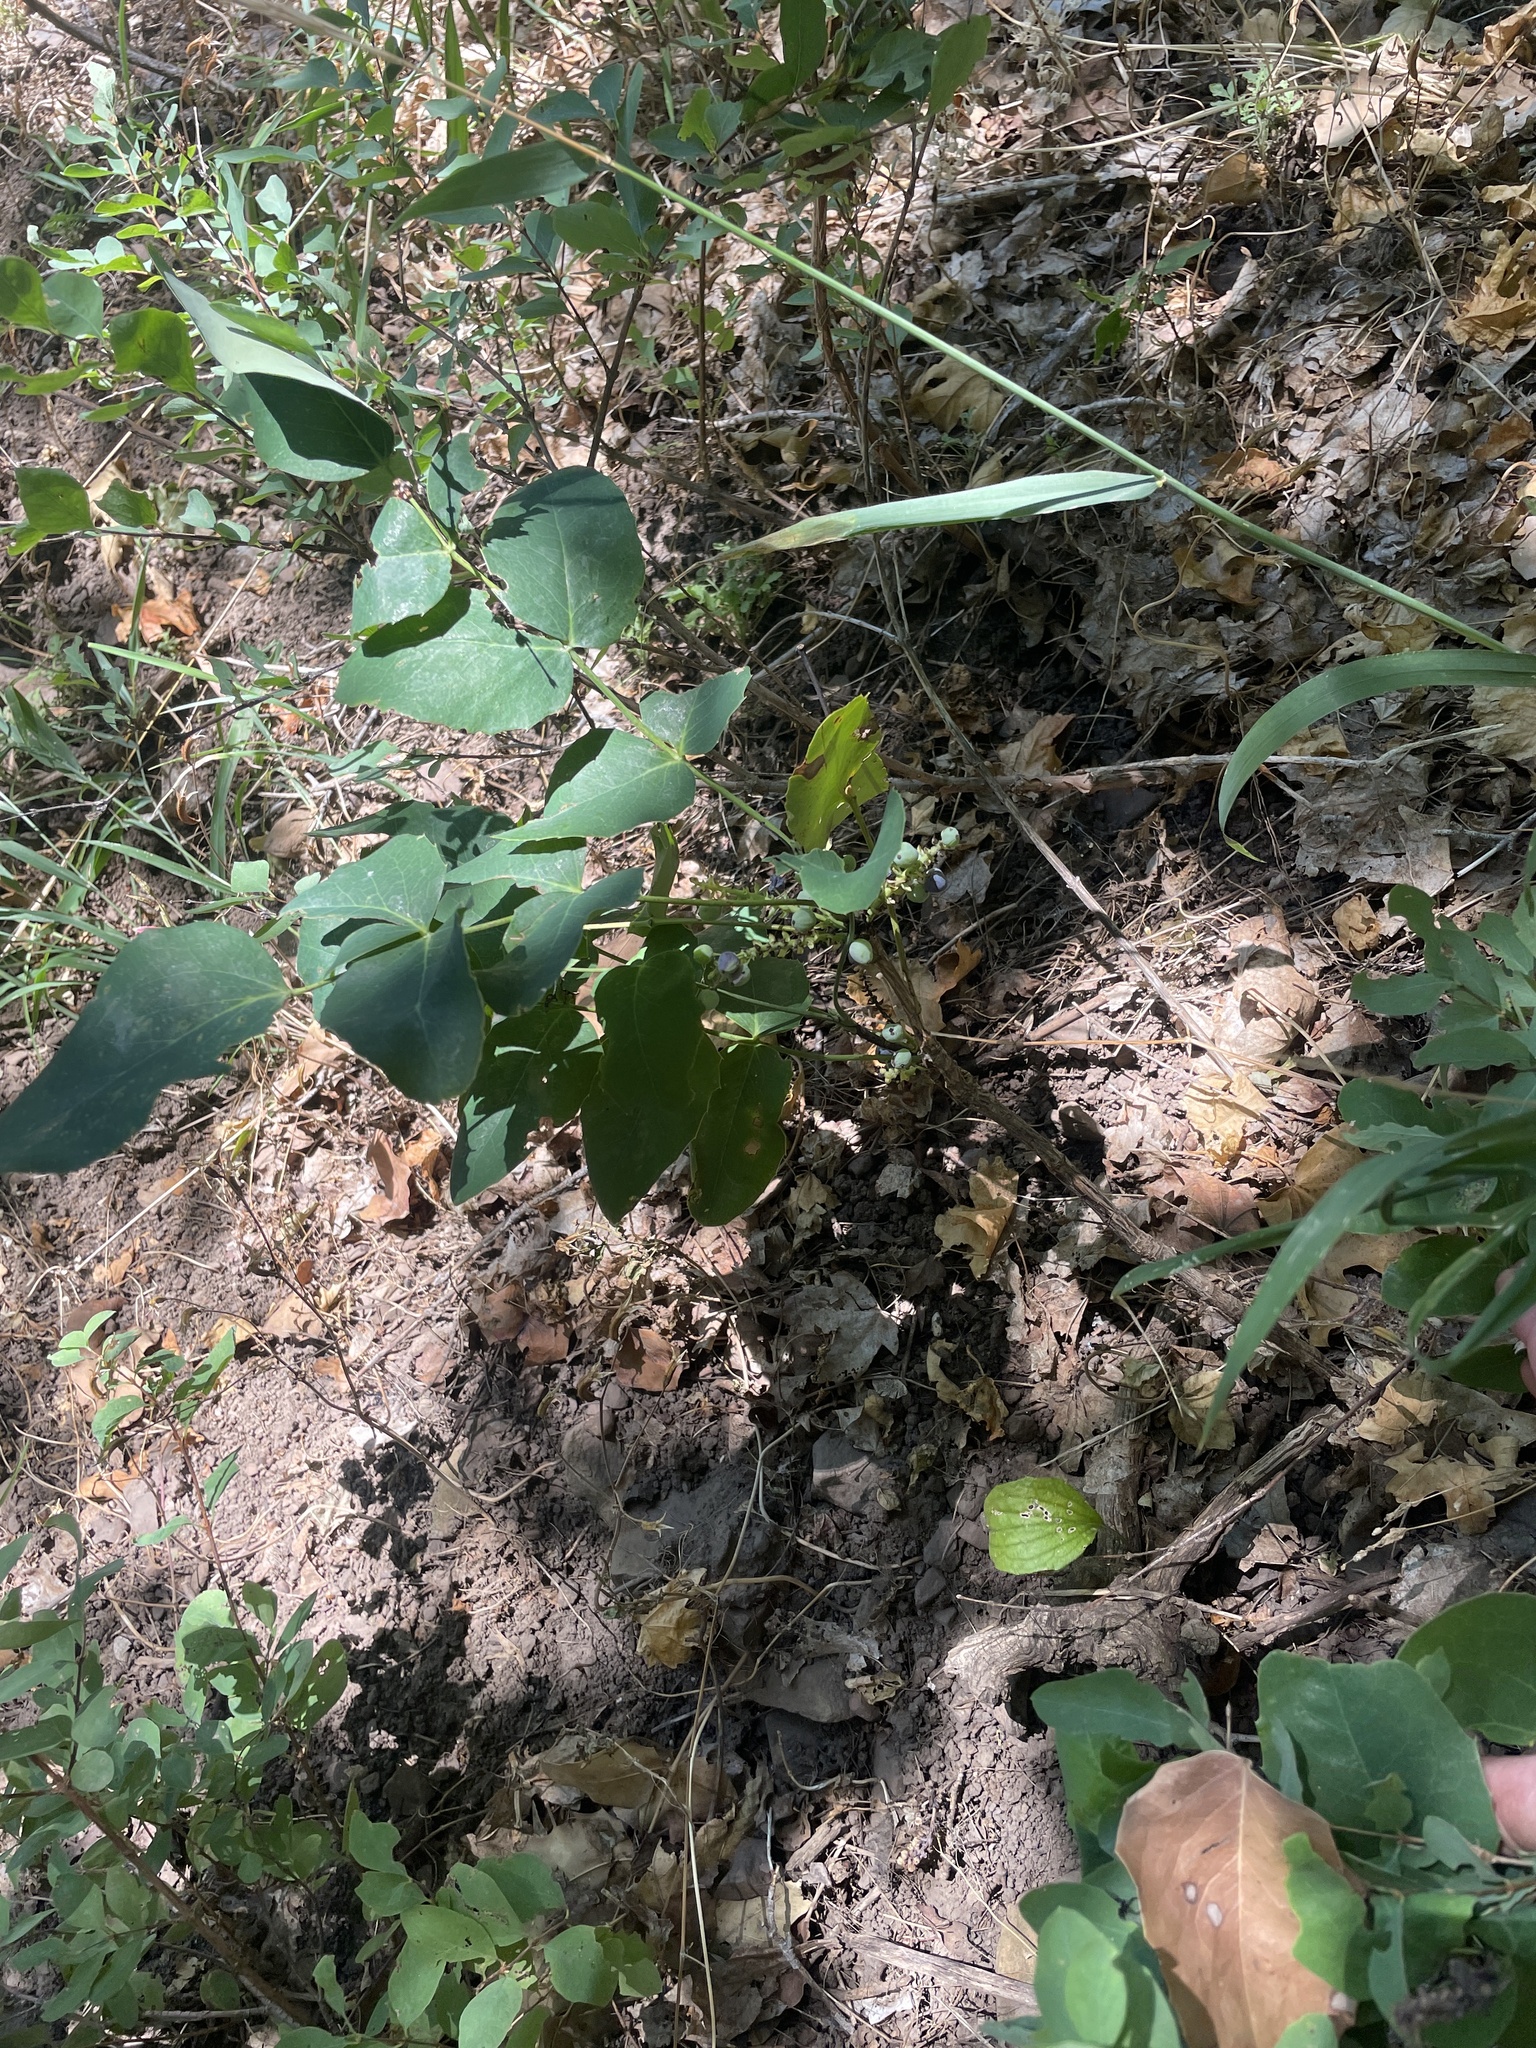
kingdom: Plantae
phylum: Tracheophyta
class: Magnoliopsida
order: Ranunculales
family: Berberidaceae
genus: Mahonia
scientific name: Mahonia repens
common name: Creeping oregon-grape
